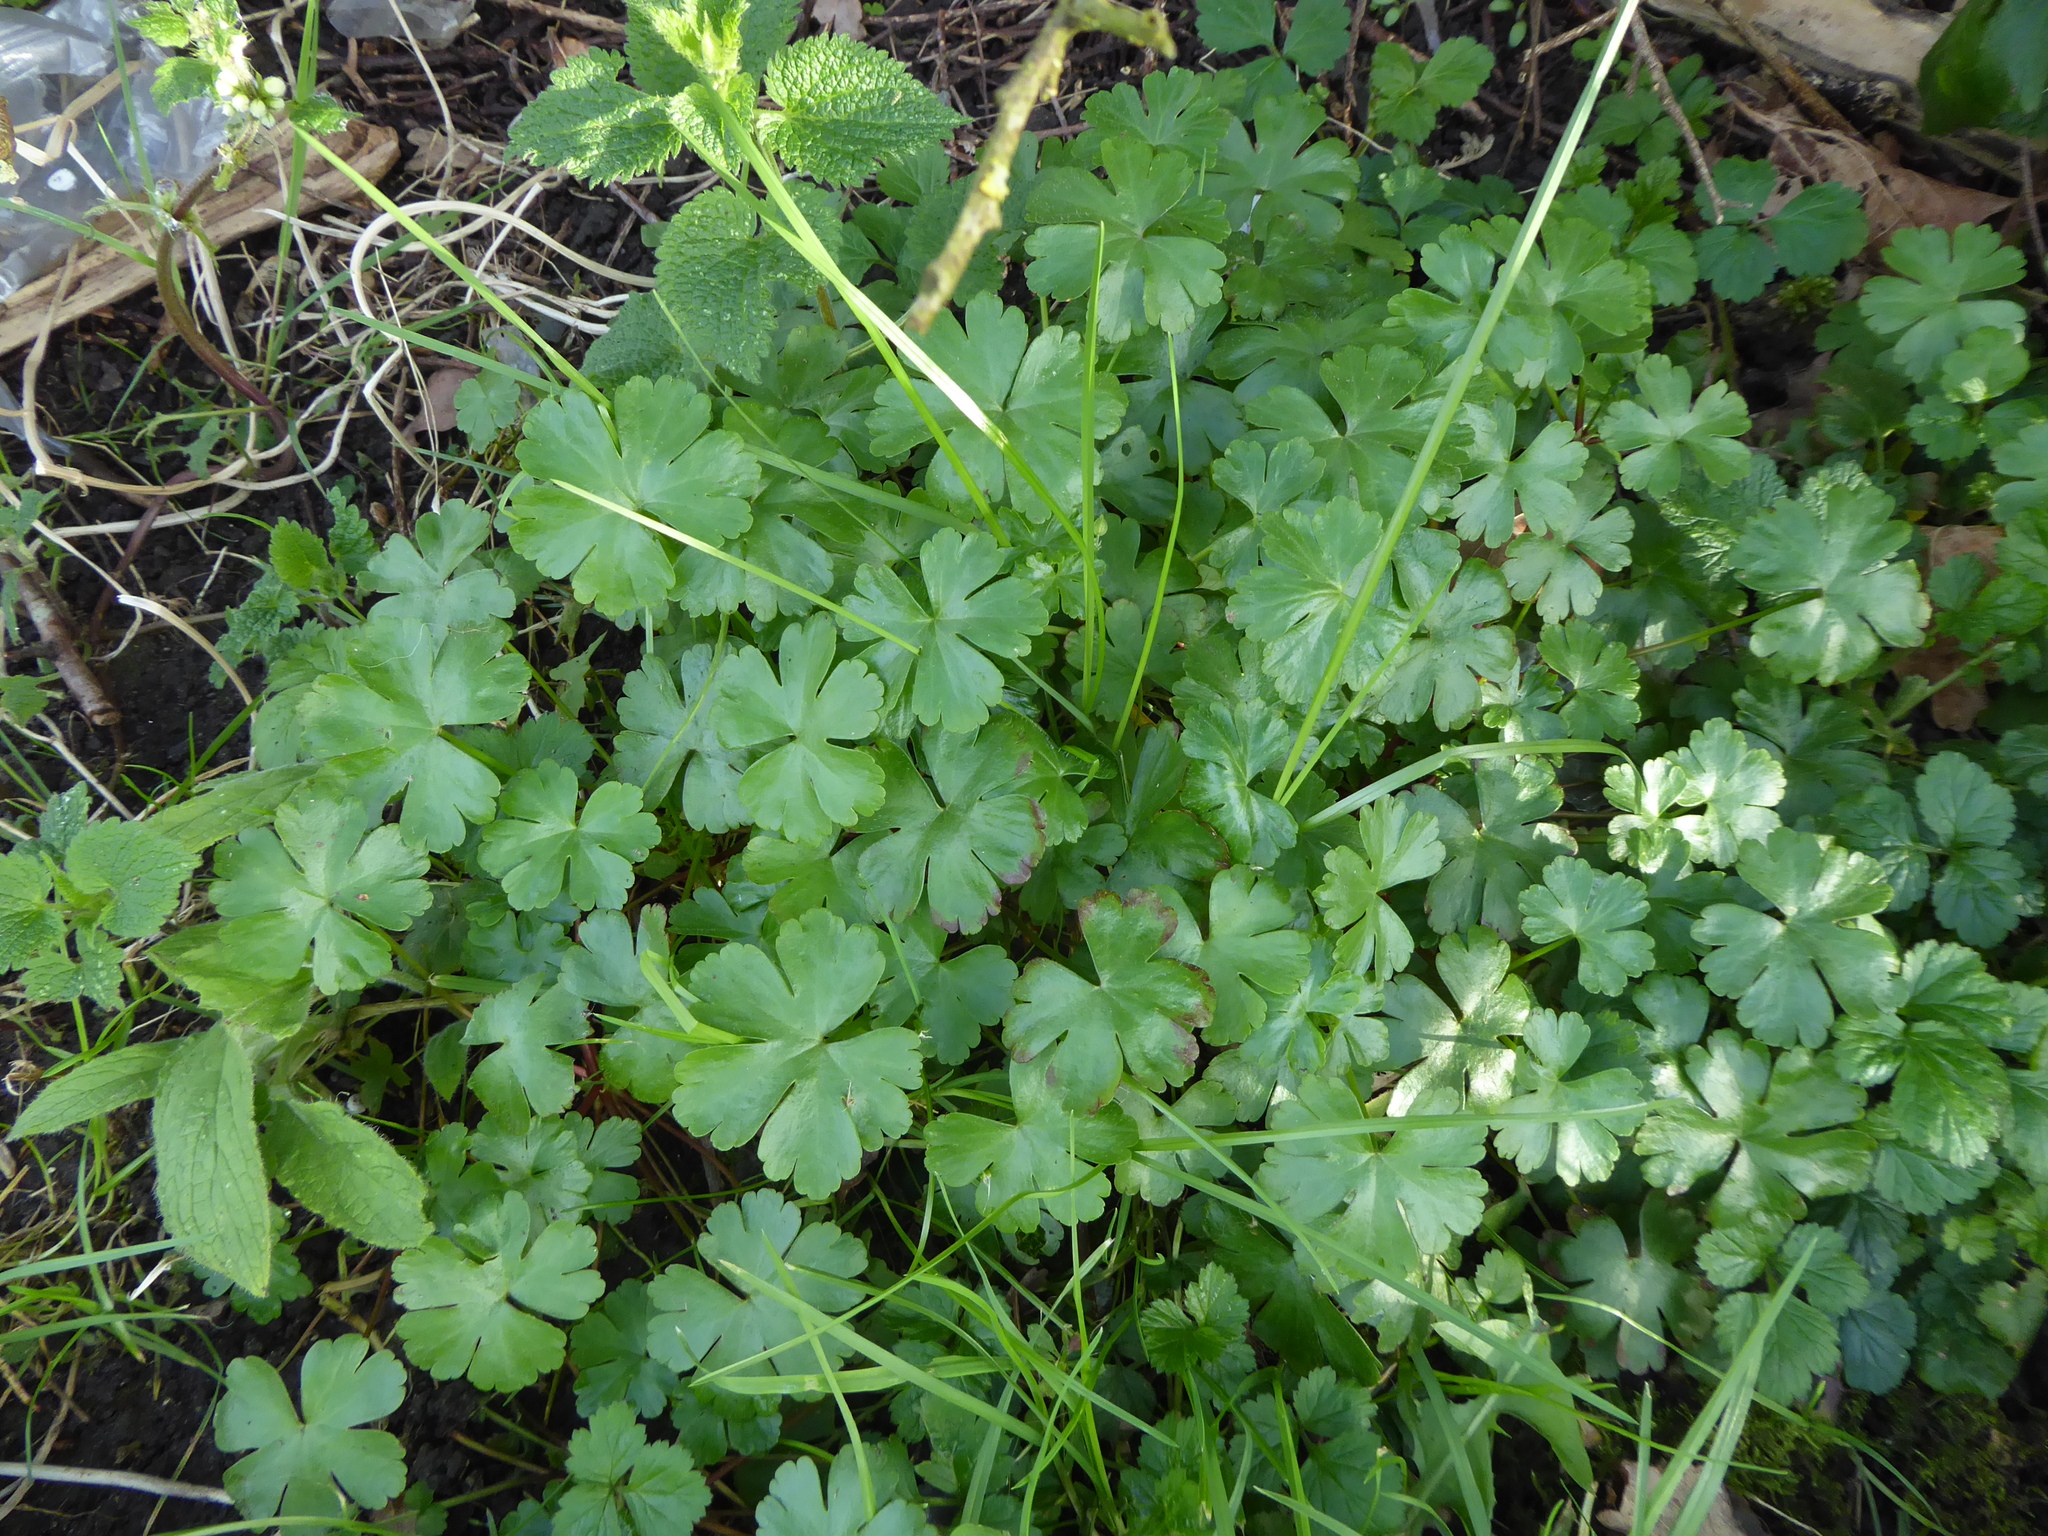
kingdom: Plantae
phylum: Tracheophyta
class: Magnoliopsida
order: Geraniales
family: Geraniaceae
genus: Geranium
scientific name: Geranium lucidum
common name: Shining crane's-bill
